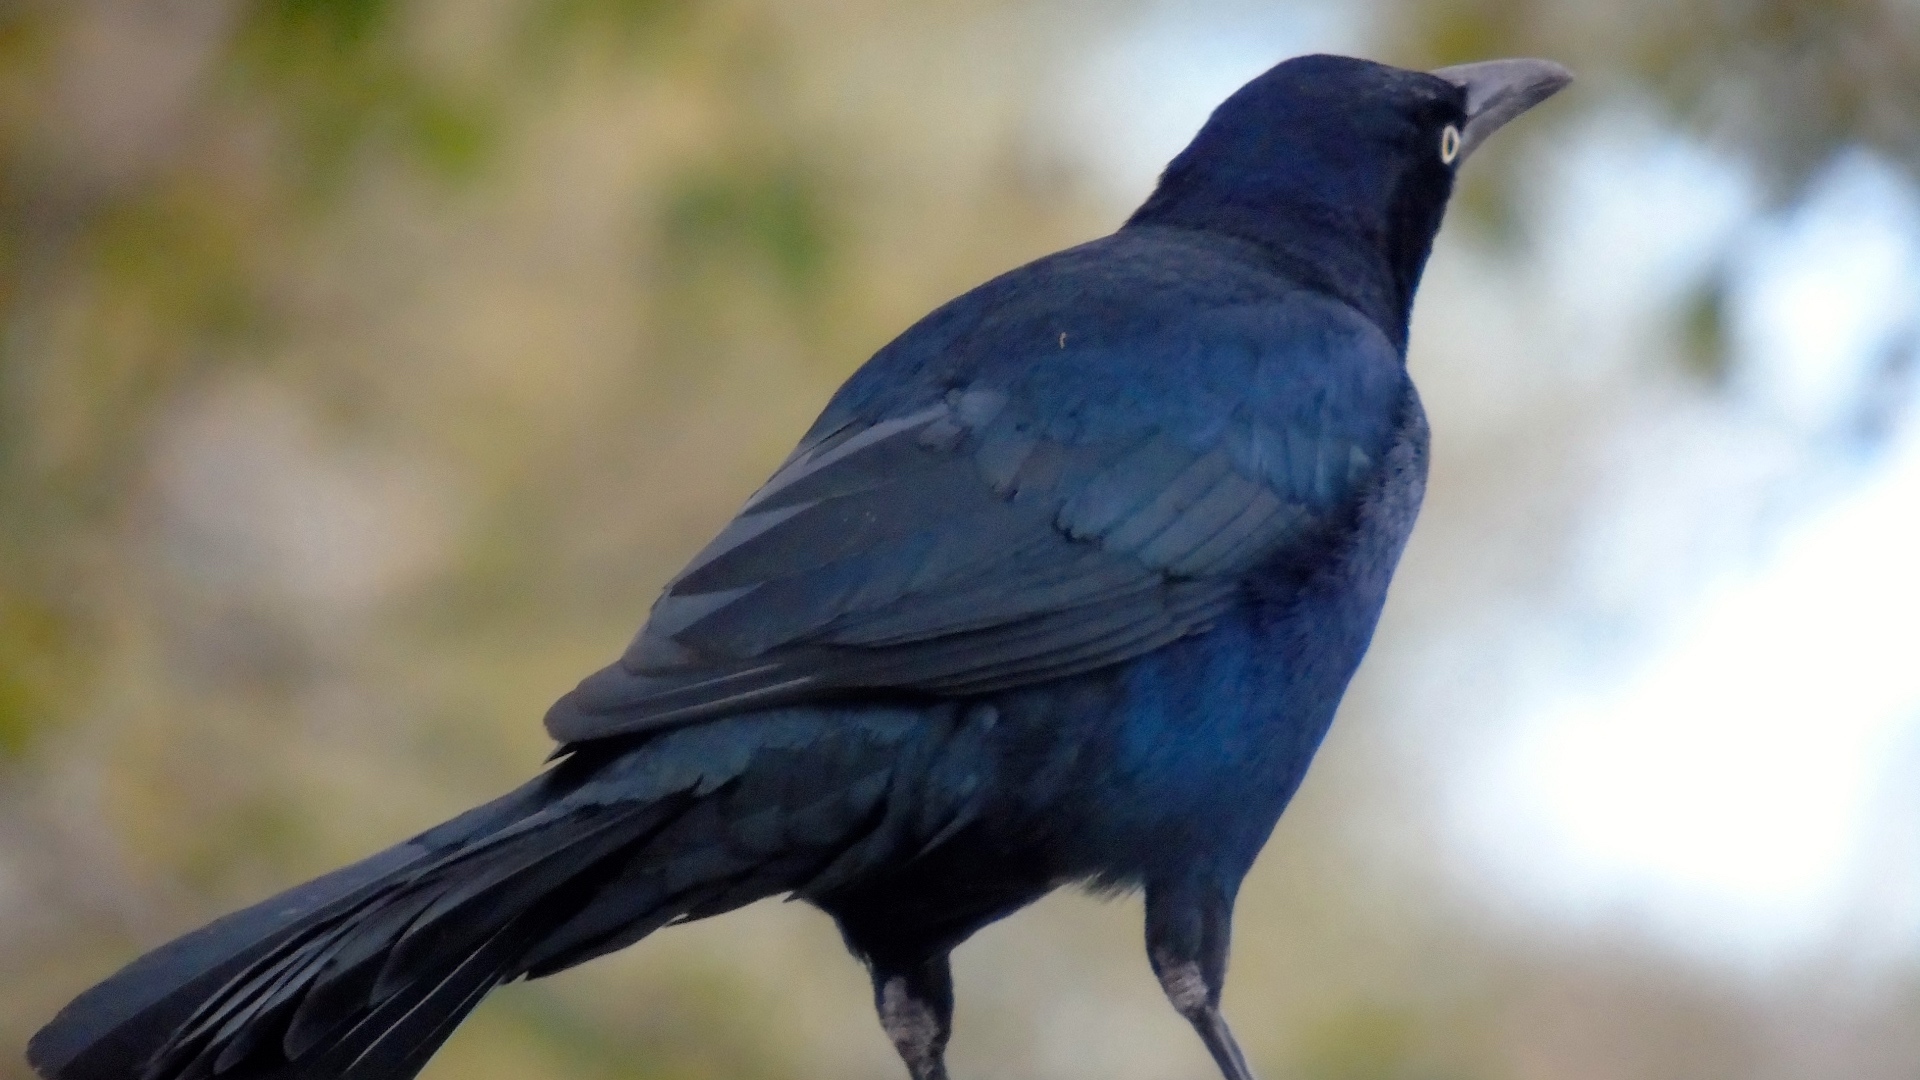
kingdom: Animalia
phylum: Chordata
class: Aves
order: Passeriformes
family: Icteridae
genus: Quiscalus
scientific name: Quiscalus mexicanus
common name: Great-tailed grackle
